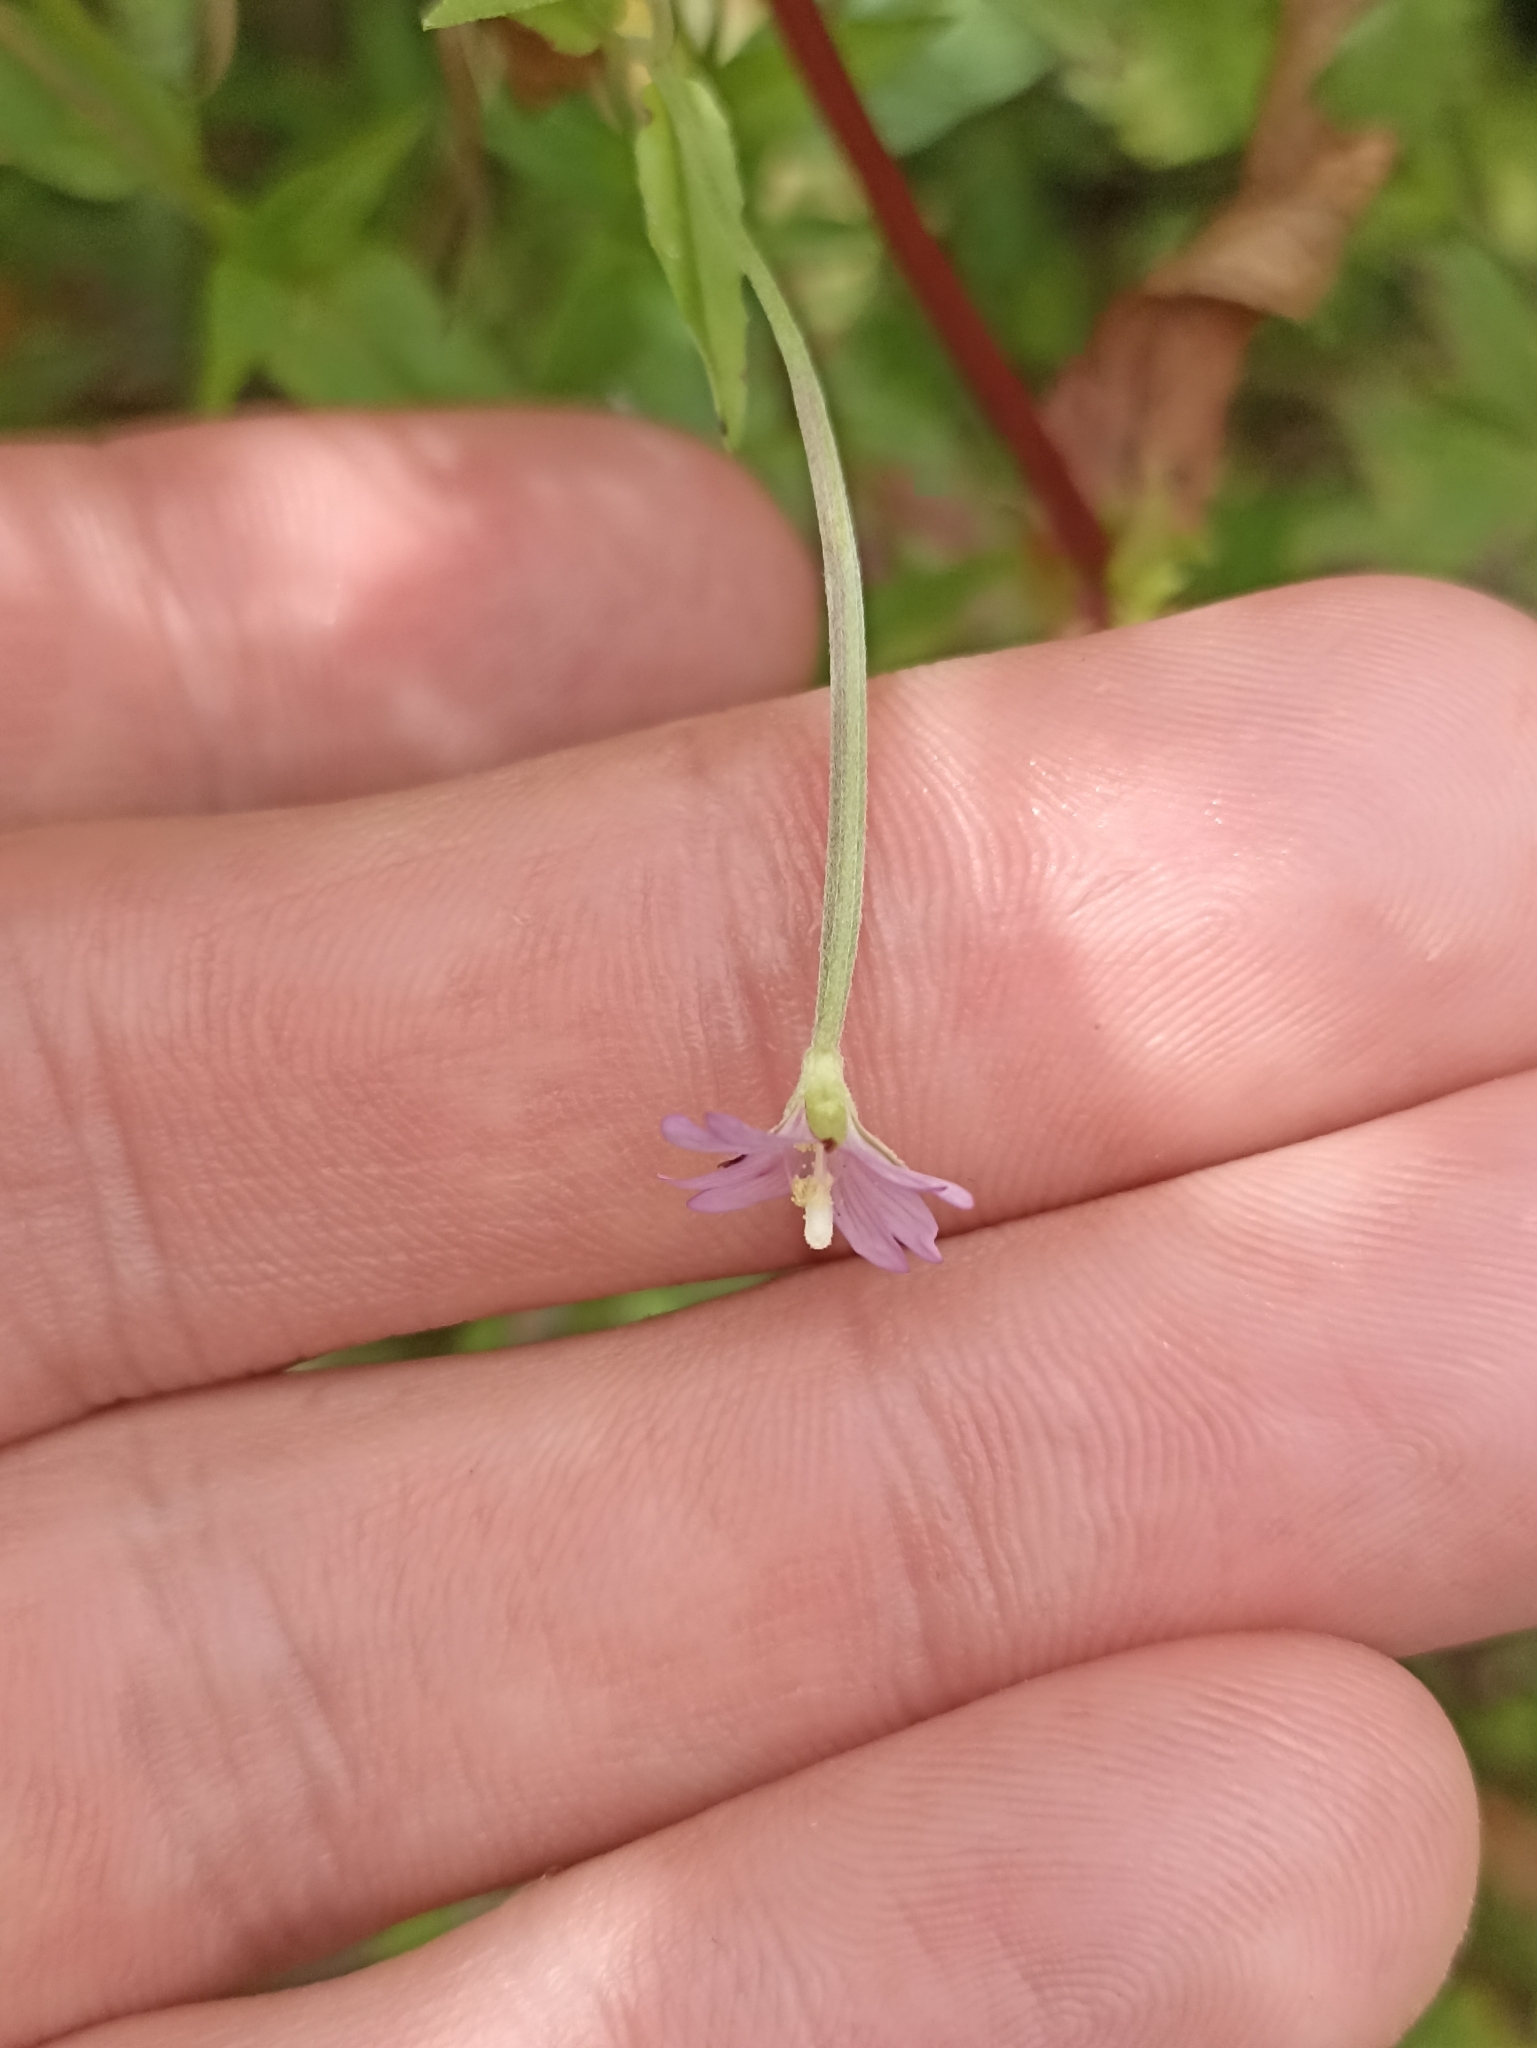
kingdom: Plantae
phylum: Tracheophyta
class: Magnoliopsida
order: Myrtales
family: Onagraceae
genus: Epilobium
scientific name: Epilobium ciliatum
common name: American willowherb
